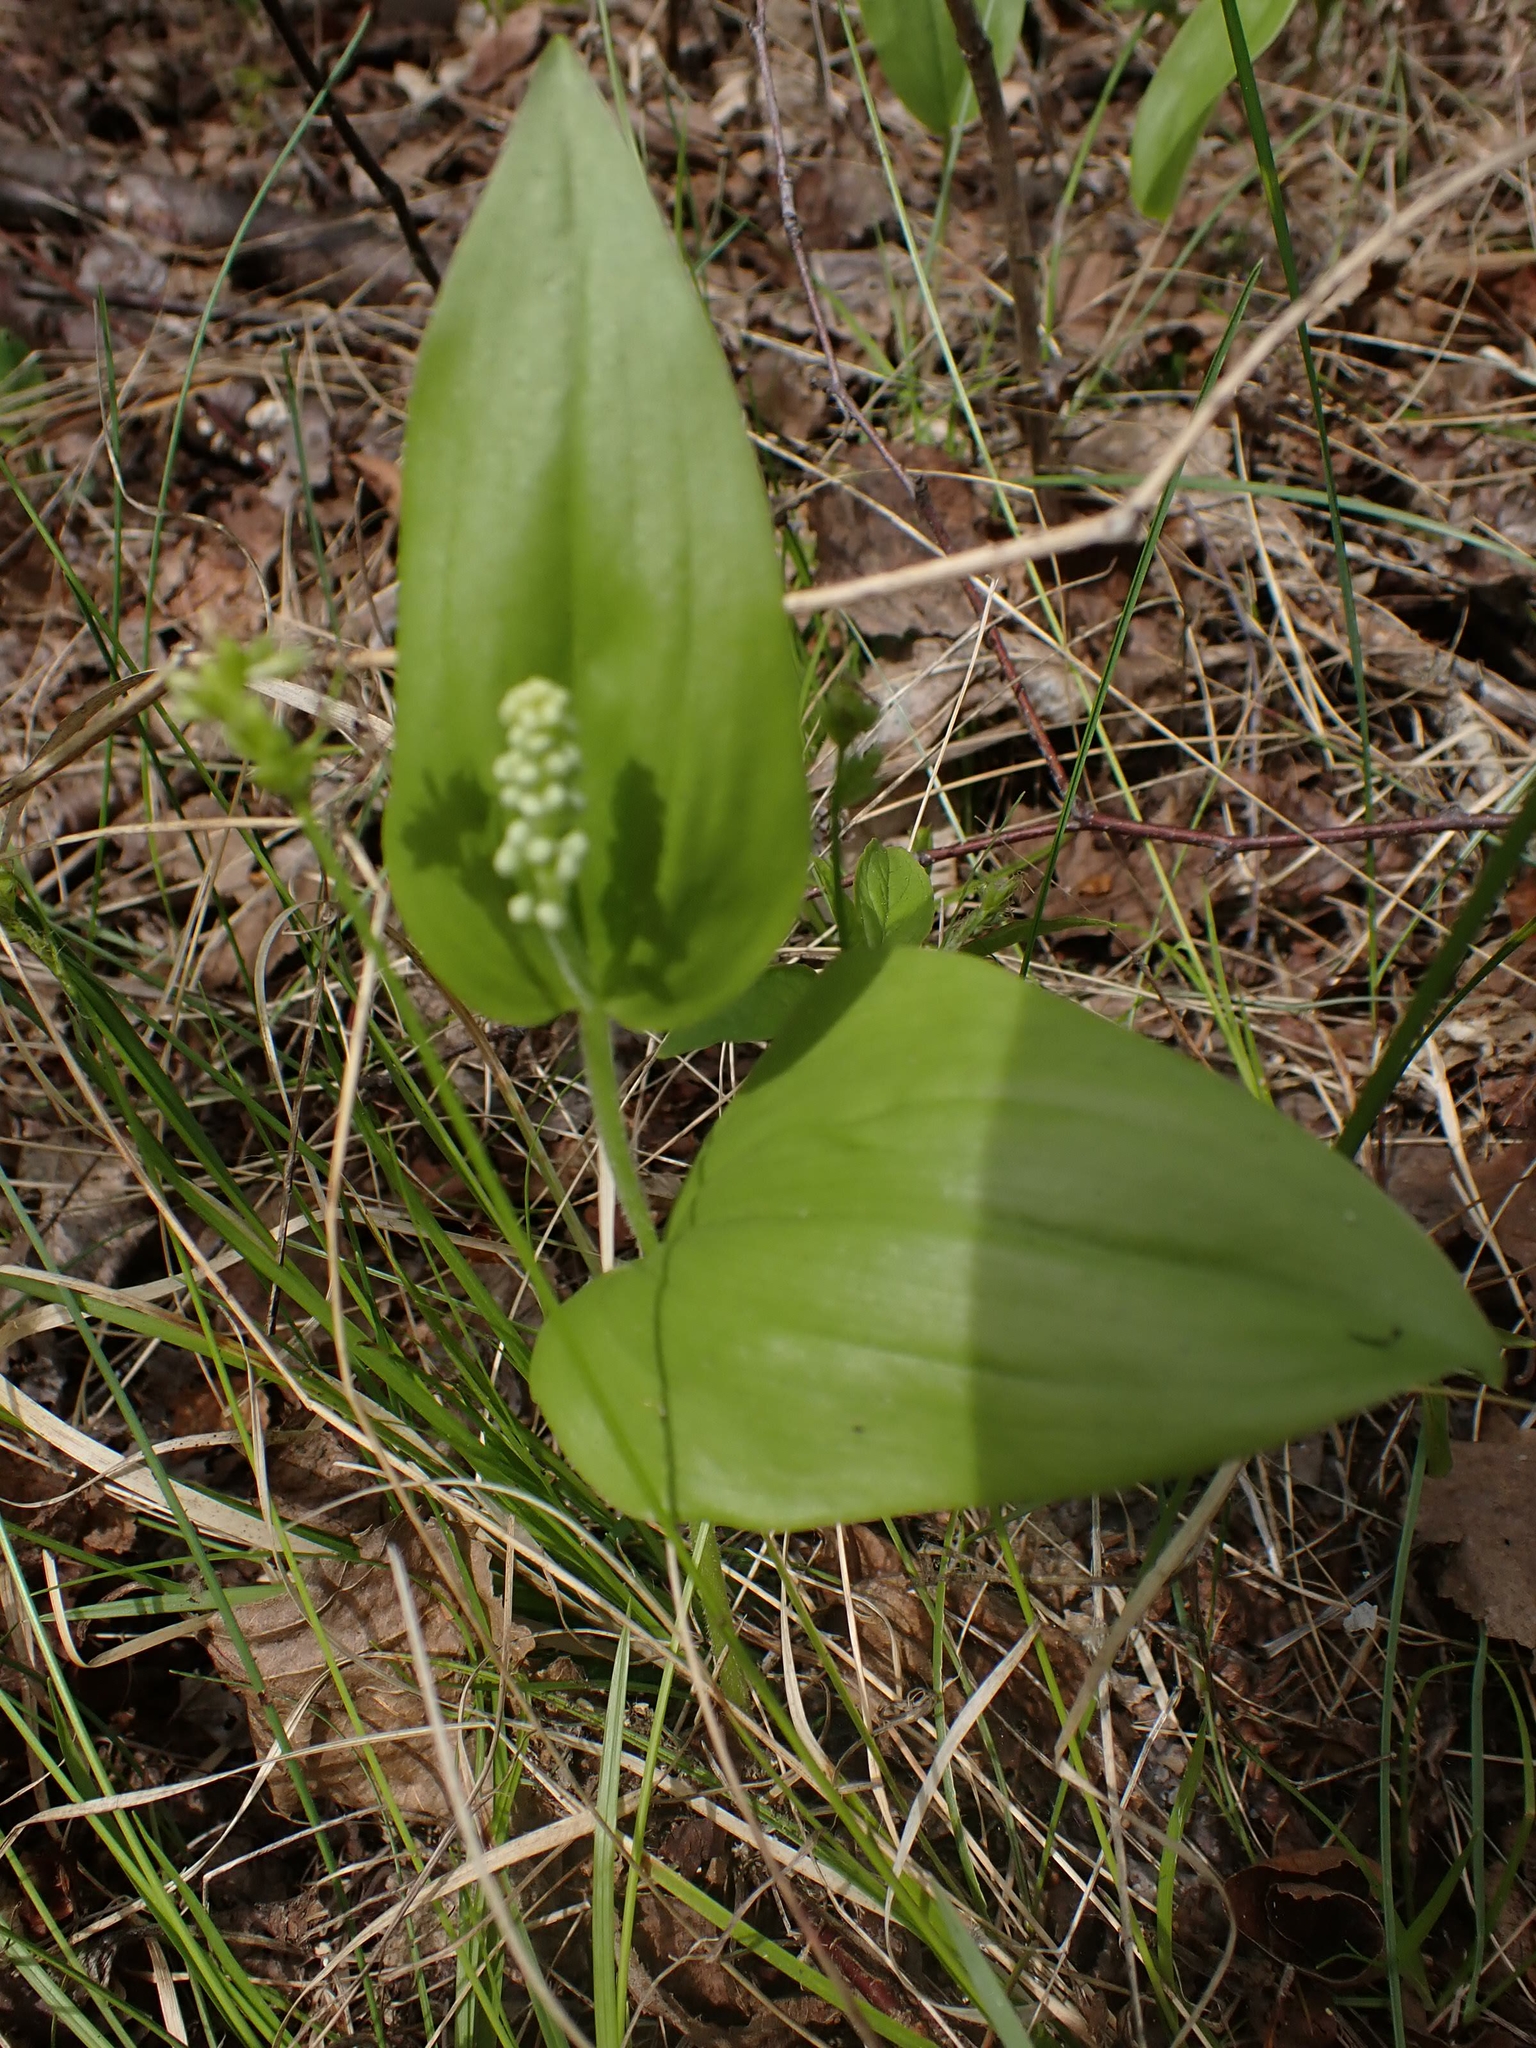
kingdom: Plantae
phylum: Tracheophyta
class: Liliopsida
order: Asparagales
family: Asparagaceae
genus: Maianthemum
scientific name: Maianthemum canadense
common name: False lily-of-the-valley
